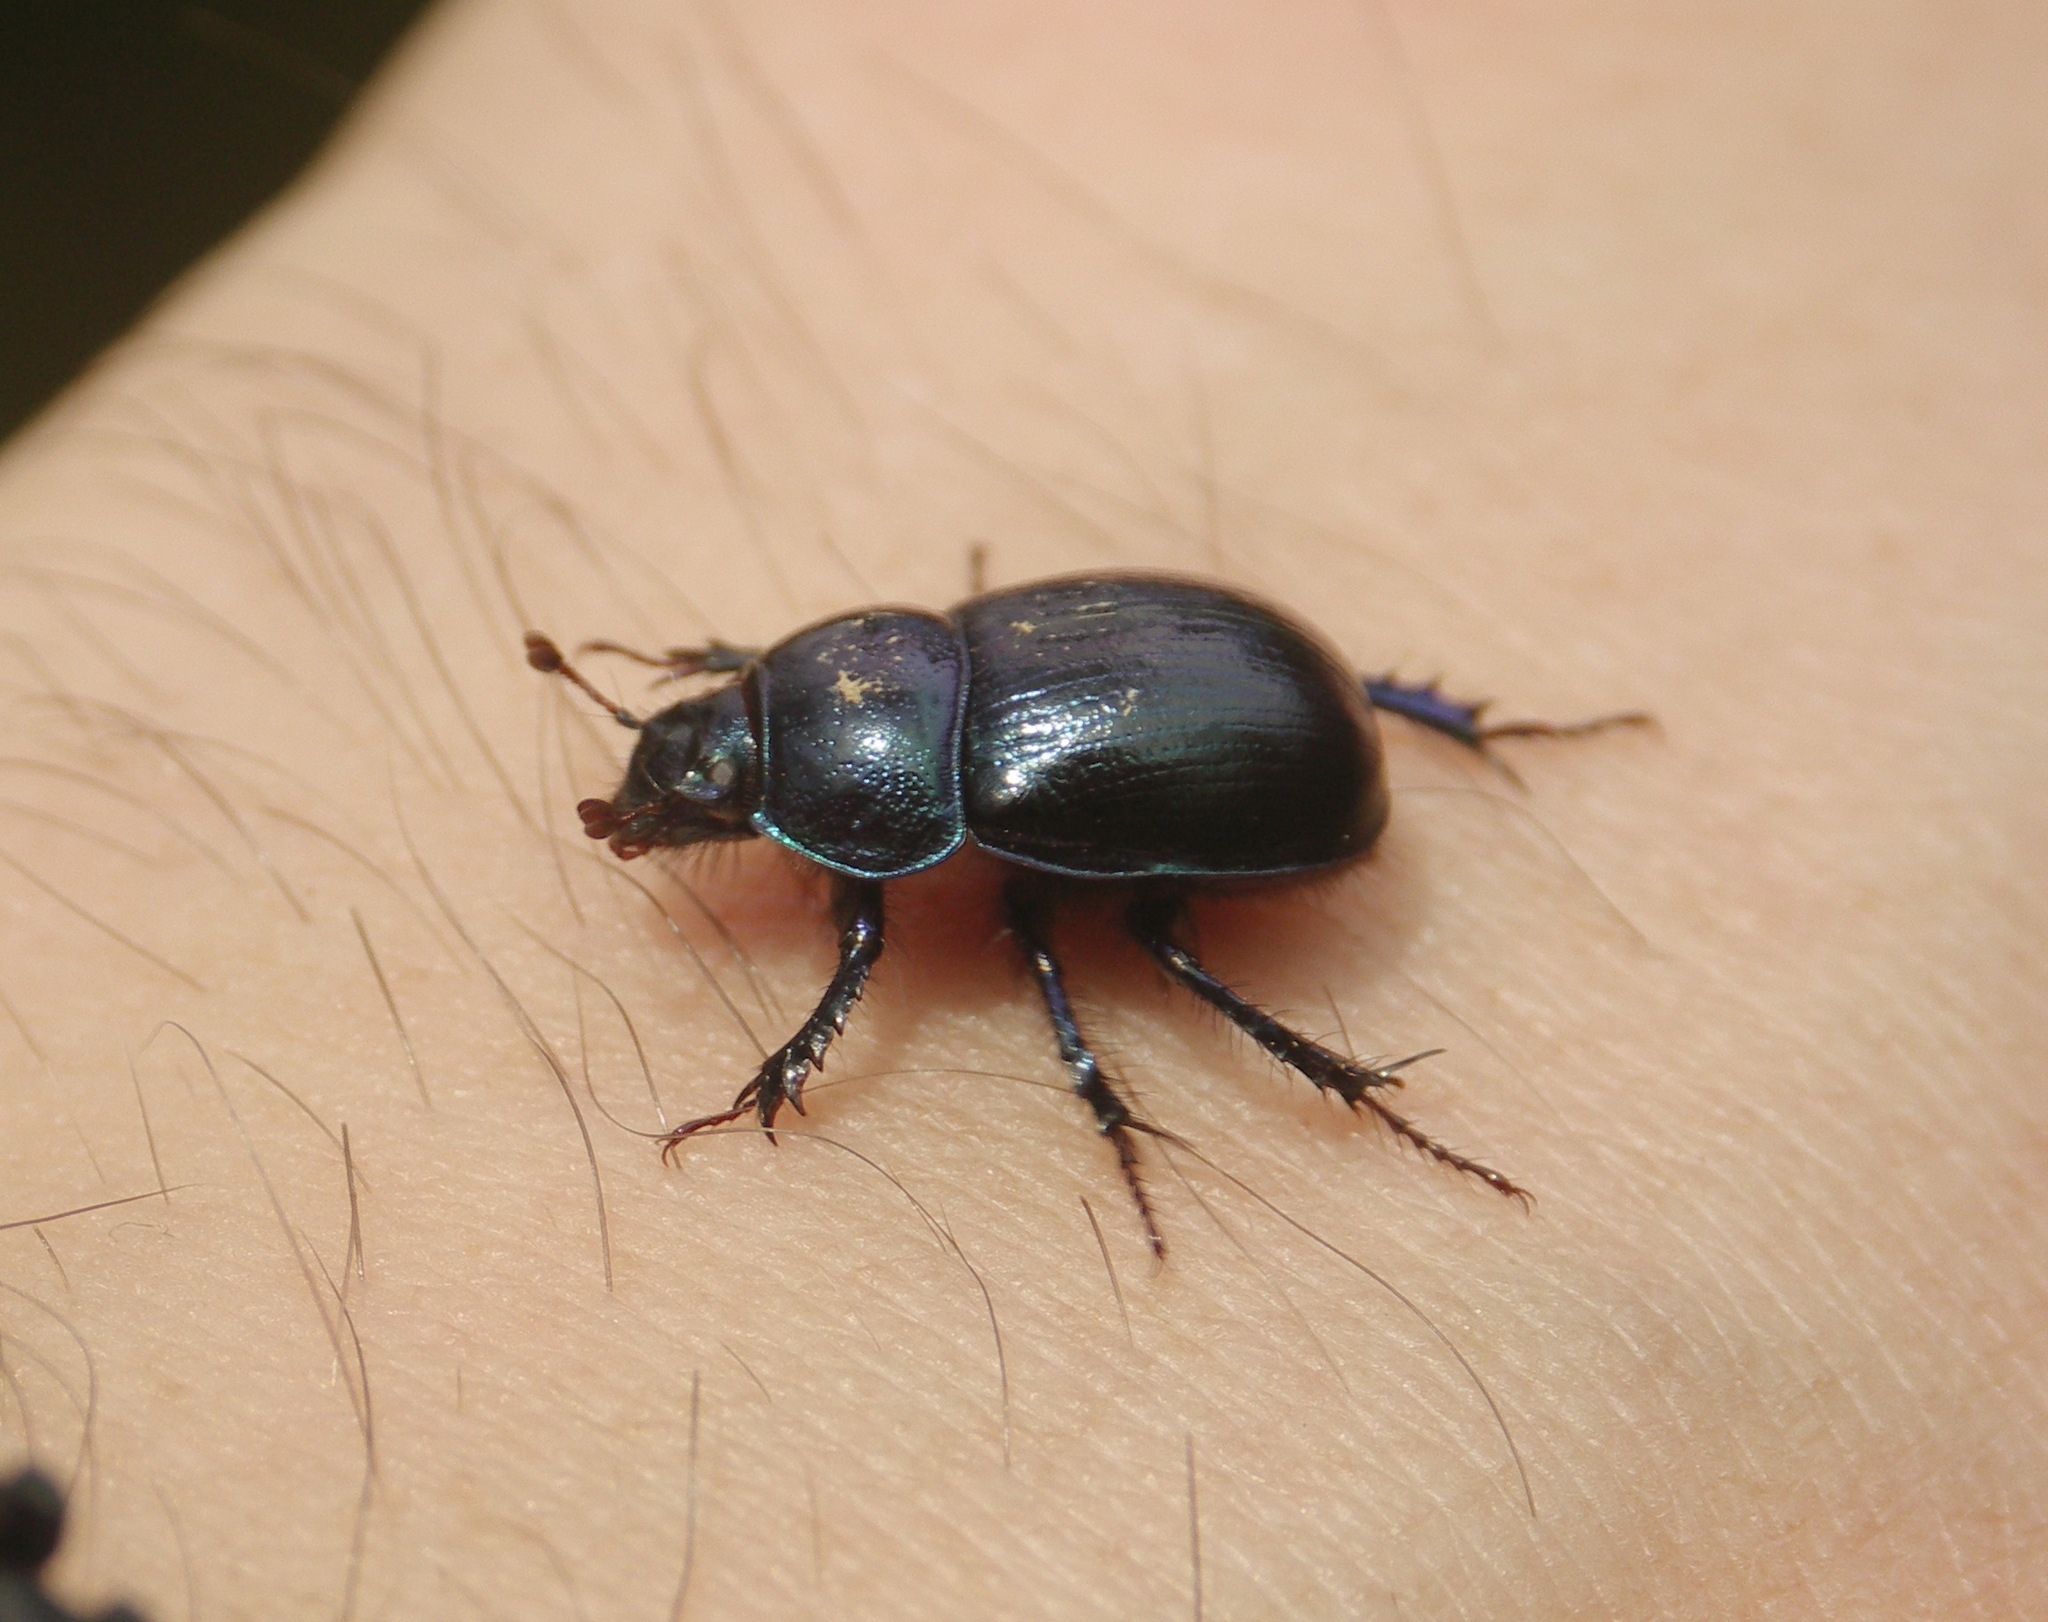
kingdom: Animalia
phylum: Arthropoda
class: Insecta
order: Coleoptera
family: Geotrupidae
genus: Anoplotrupes
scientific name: Anoplotrupes stercorosus
